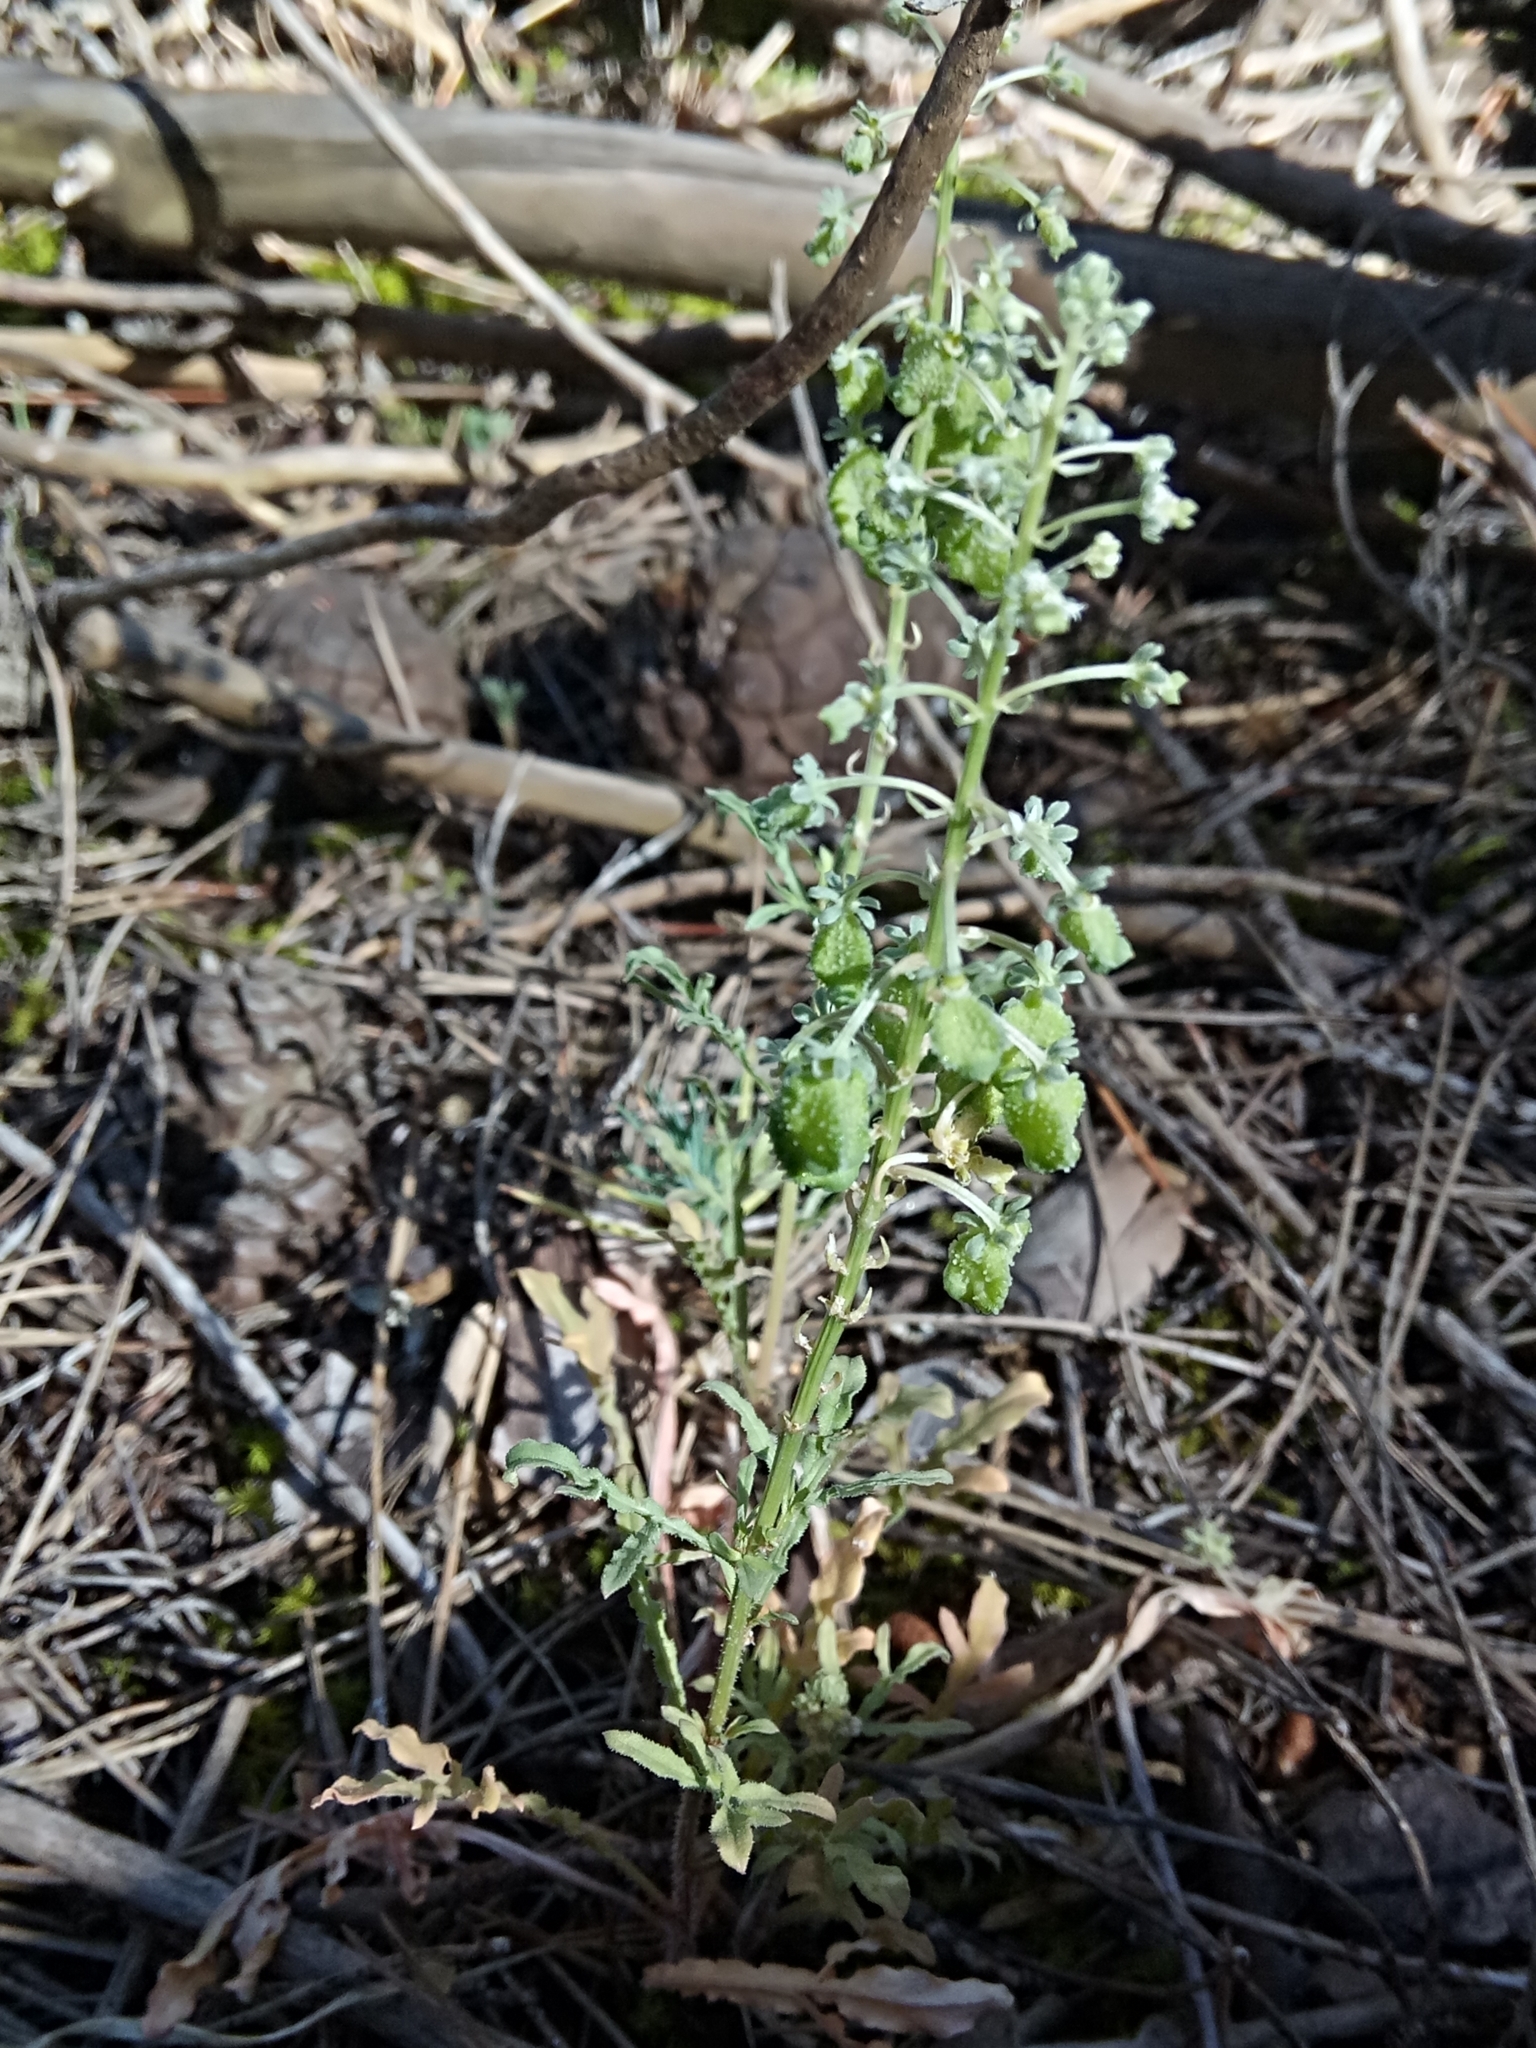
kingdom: Plantae
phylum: Tracheophyta
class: Magnoliopsida
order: Brassicales
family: Resedaceae
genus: Reseda
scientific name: Reseda duriaeana
